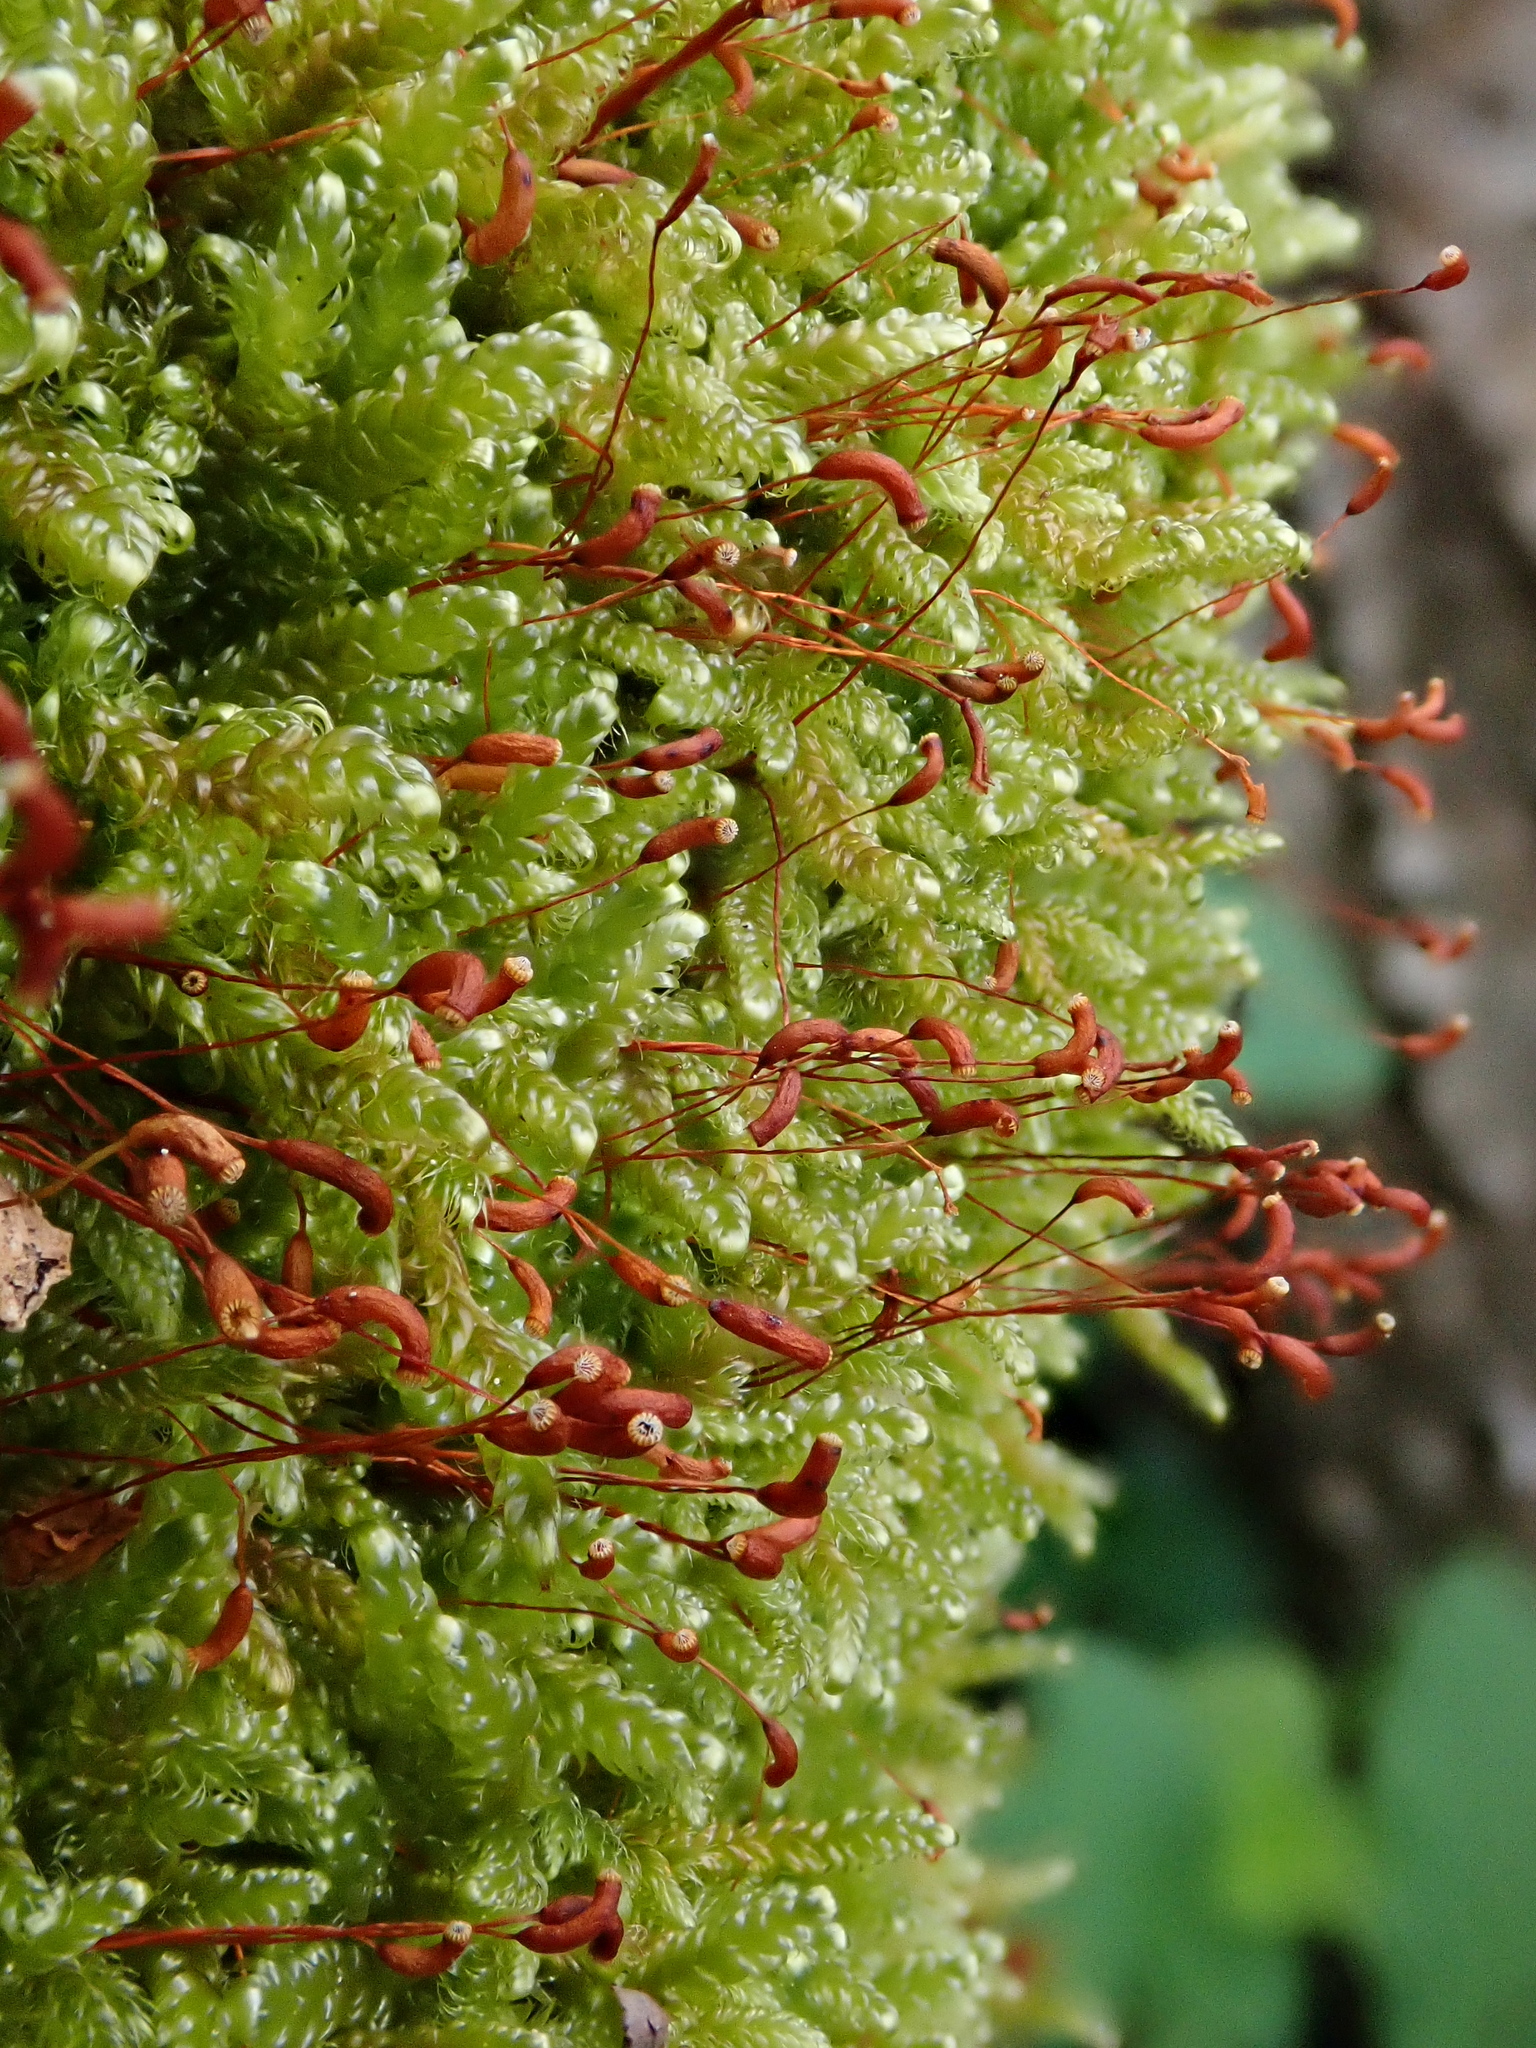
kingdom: Plantae
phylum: Bryophyta
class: Bryopsida
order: Hypnales
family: Hypnaceae
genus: Hypnum
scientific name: Hypnum cupressiforme
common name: Cypress-leaved plait-moss
